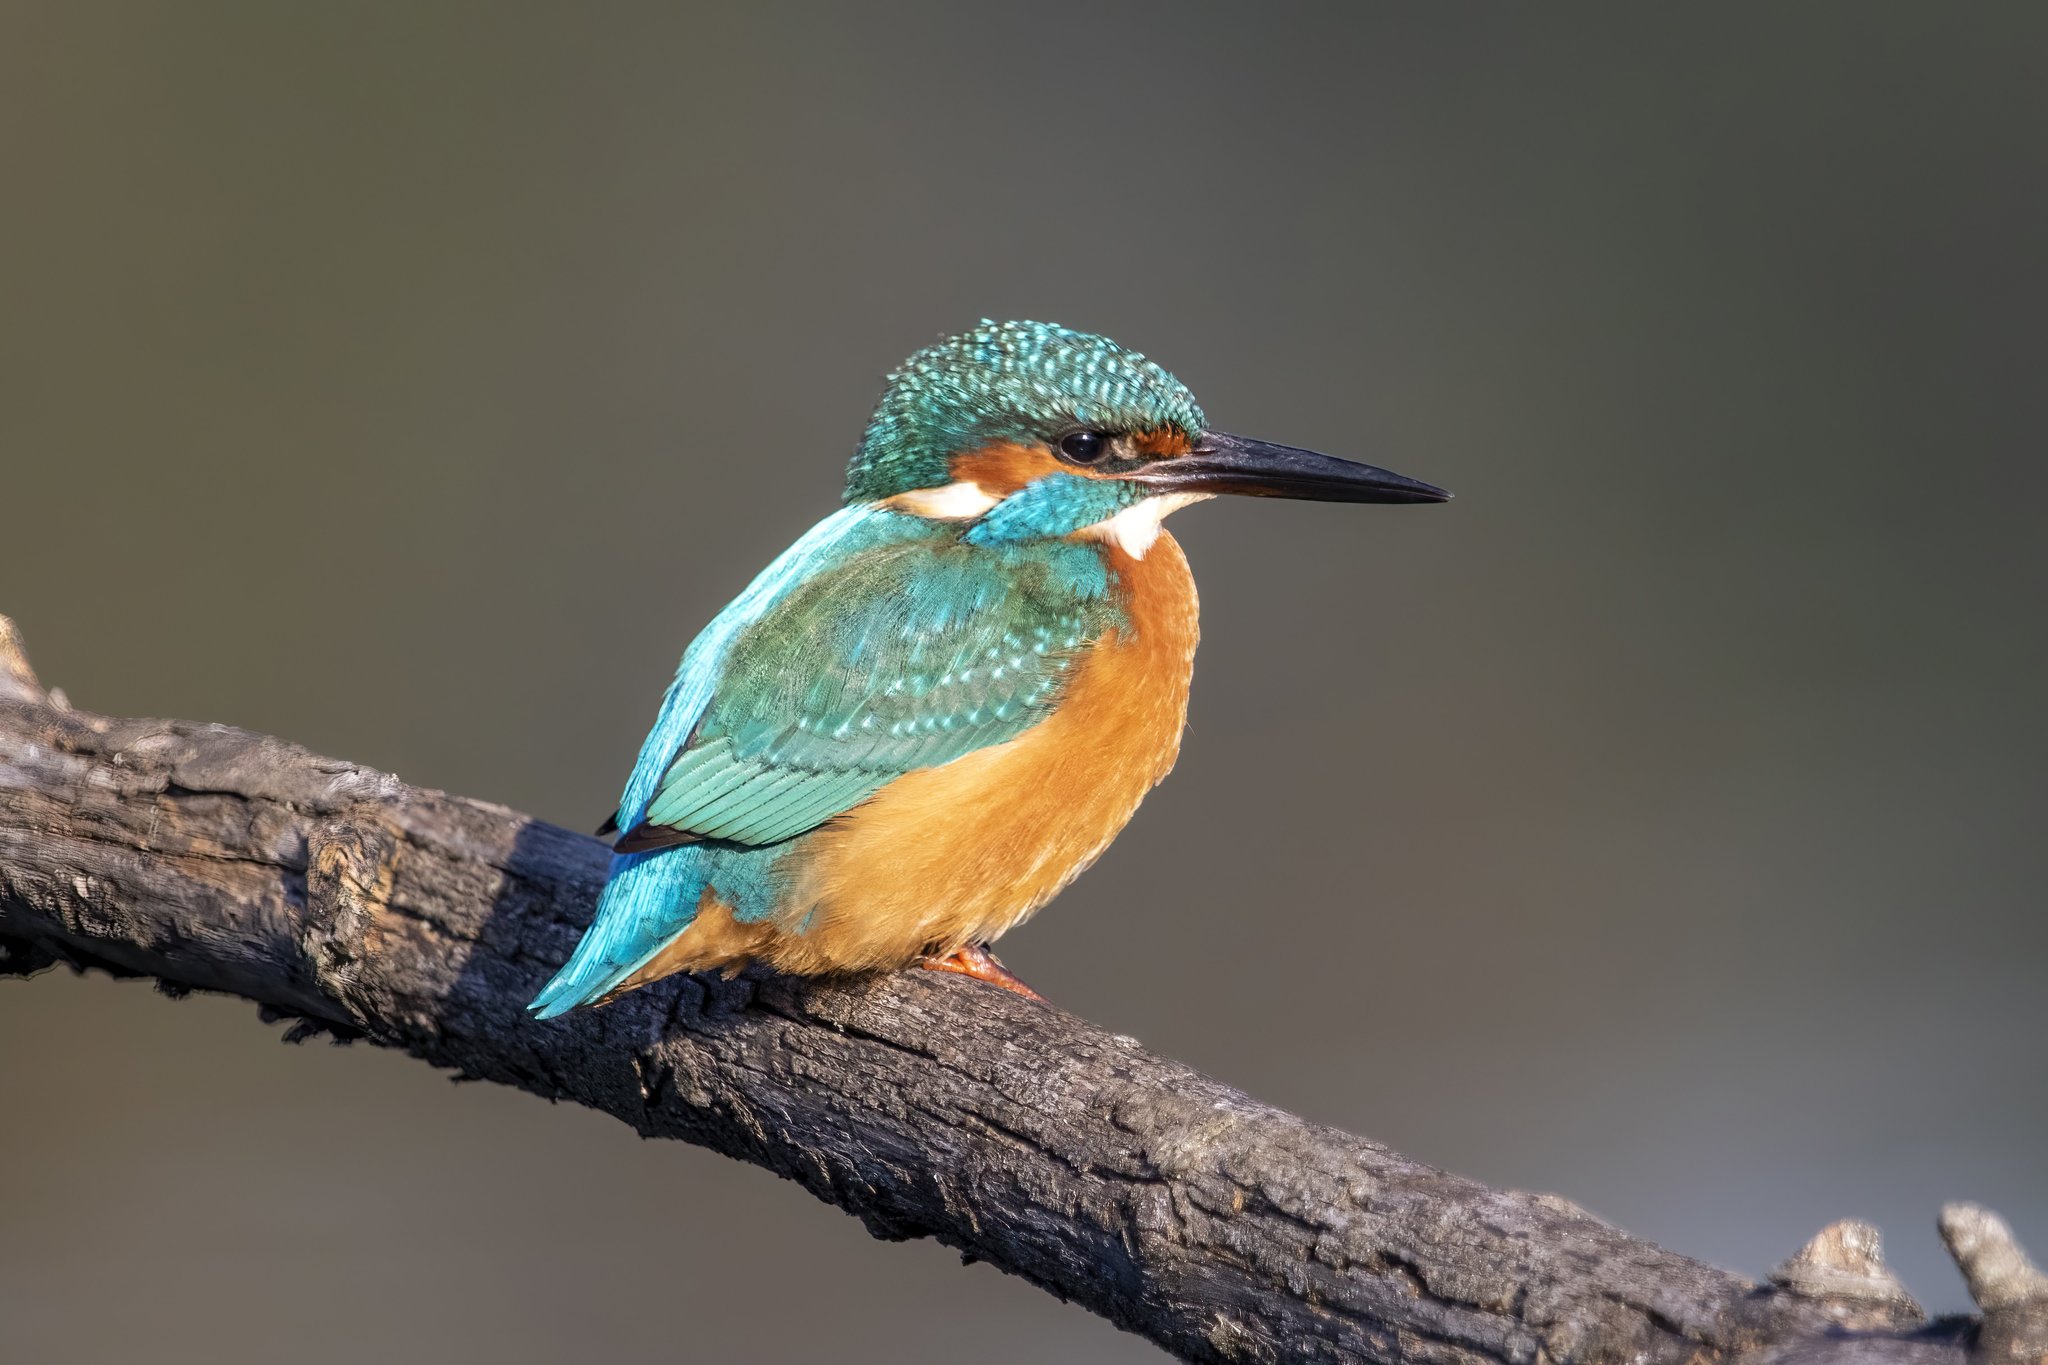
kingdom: Animalia
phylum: Chordata
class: Aves
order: Coraciiformes
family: Alcedinidae
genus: Alcedo
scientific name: Alcedo atthis
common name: Common kingfisher
